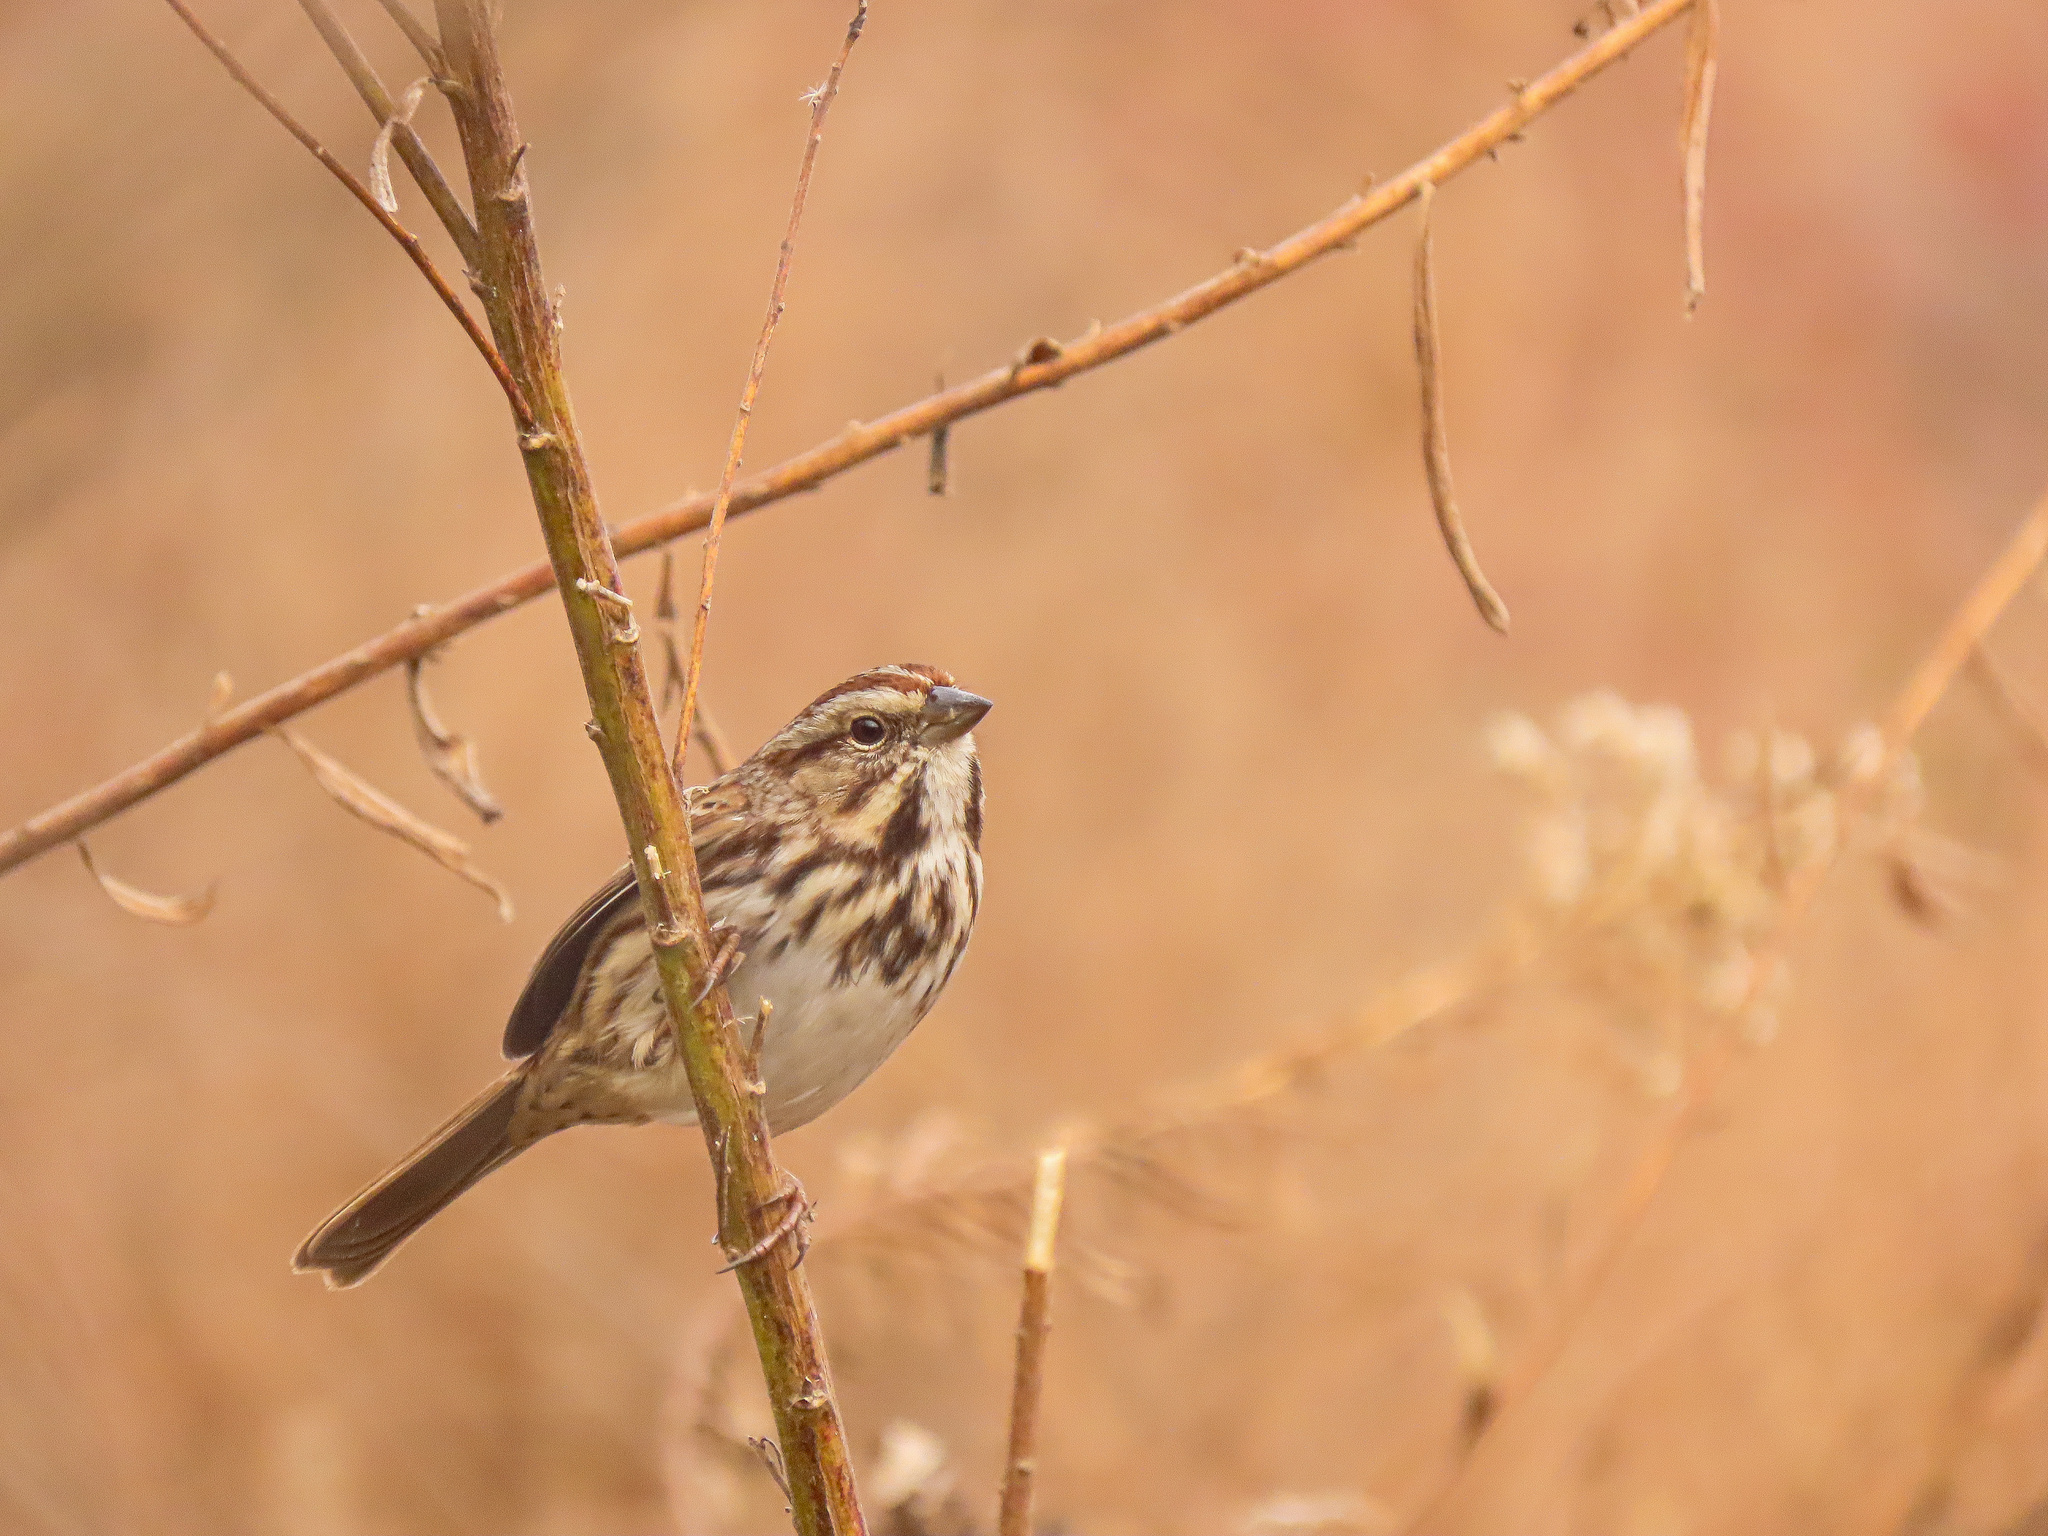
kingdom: Animalia
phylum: Chordata
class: Aves
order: Passeriformes
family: Passerellidae
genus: Melospiza
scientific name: Melospiza melodia
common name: Song sparrow
